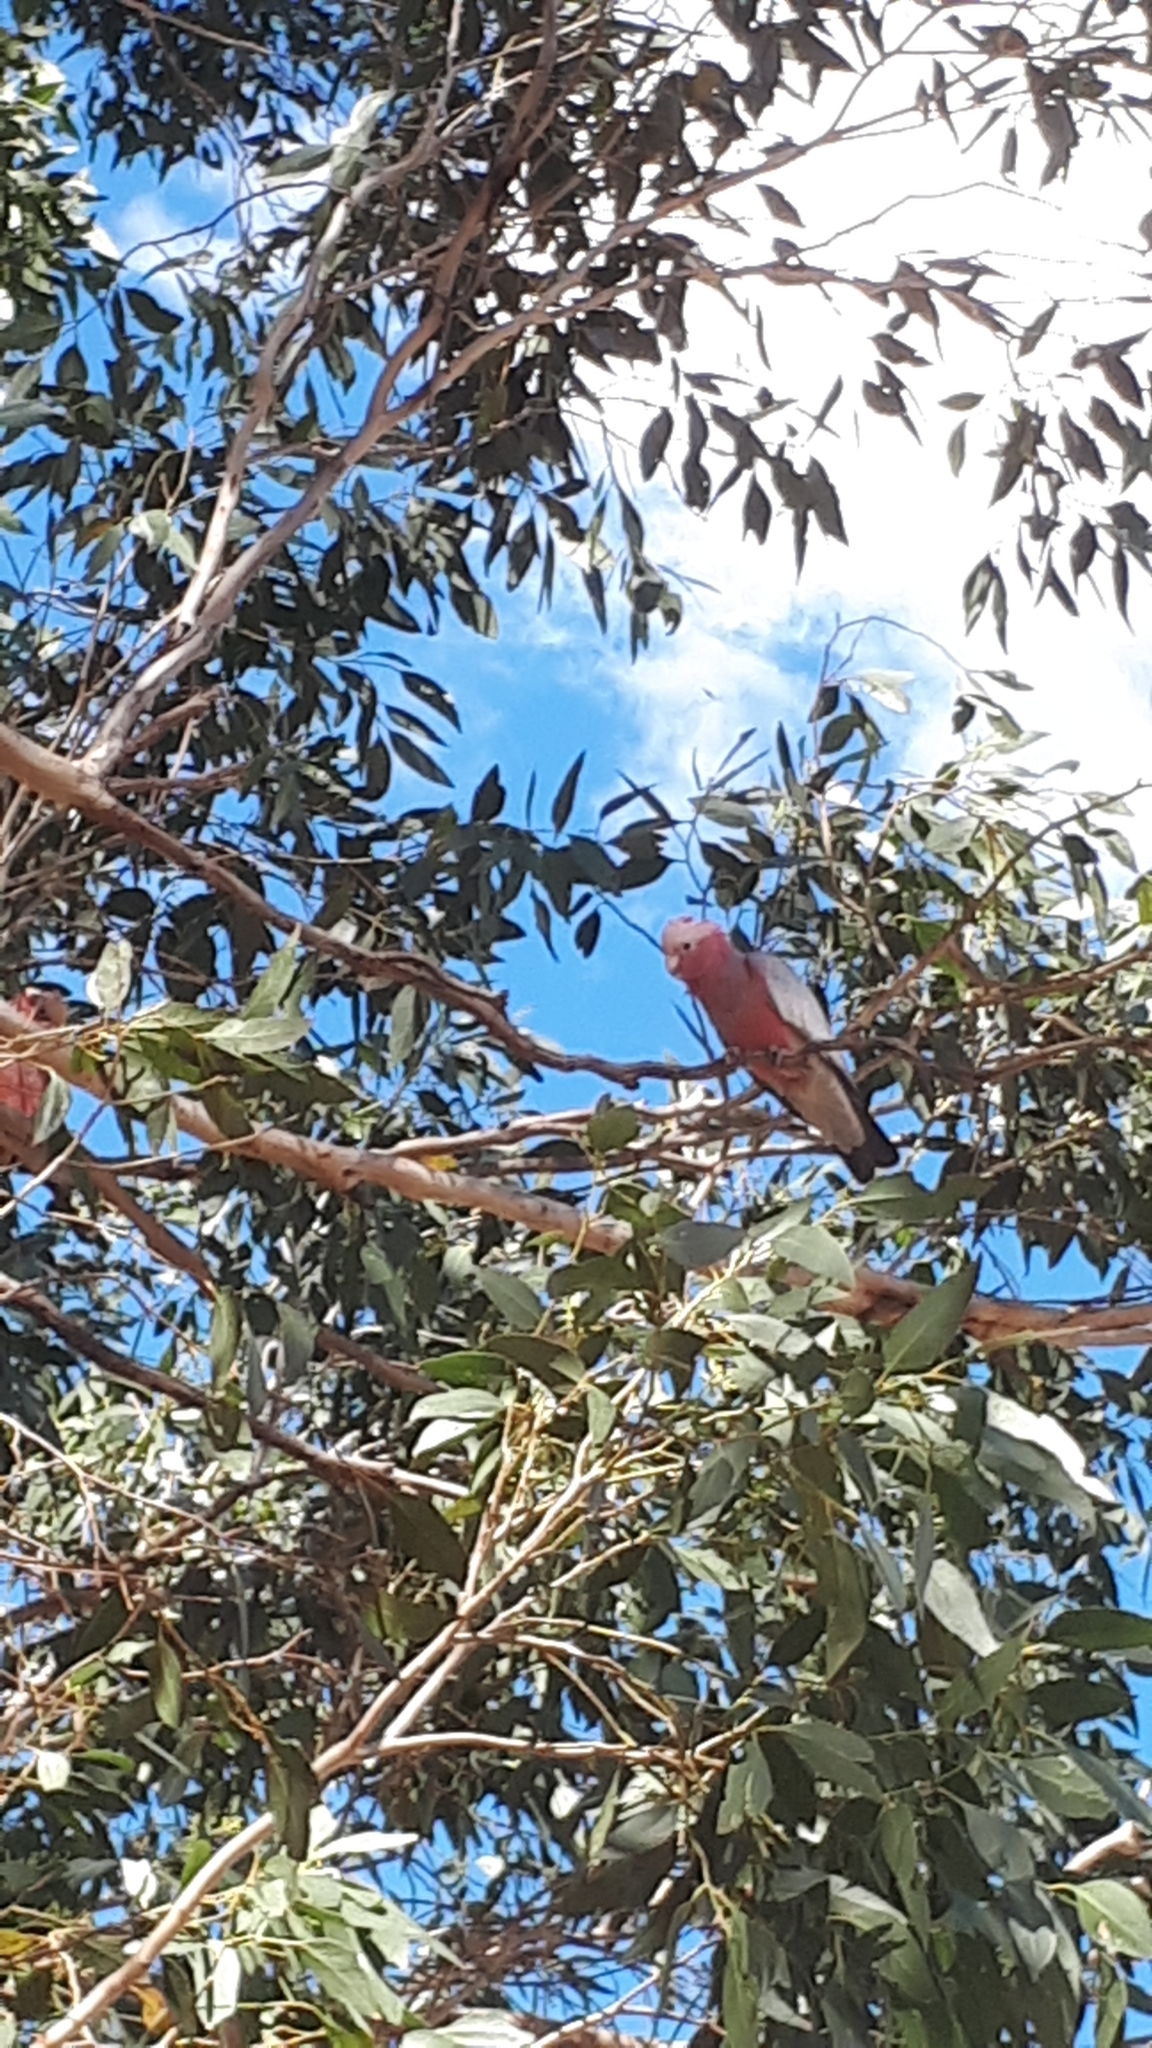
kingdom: Animalia
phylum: Chordata
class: Aves
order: Psittaciformes
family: Psittacidae
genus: Eolophus
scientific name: Eolophus roseicapilla
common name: Galah
